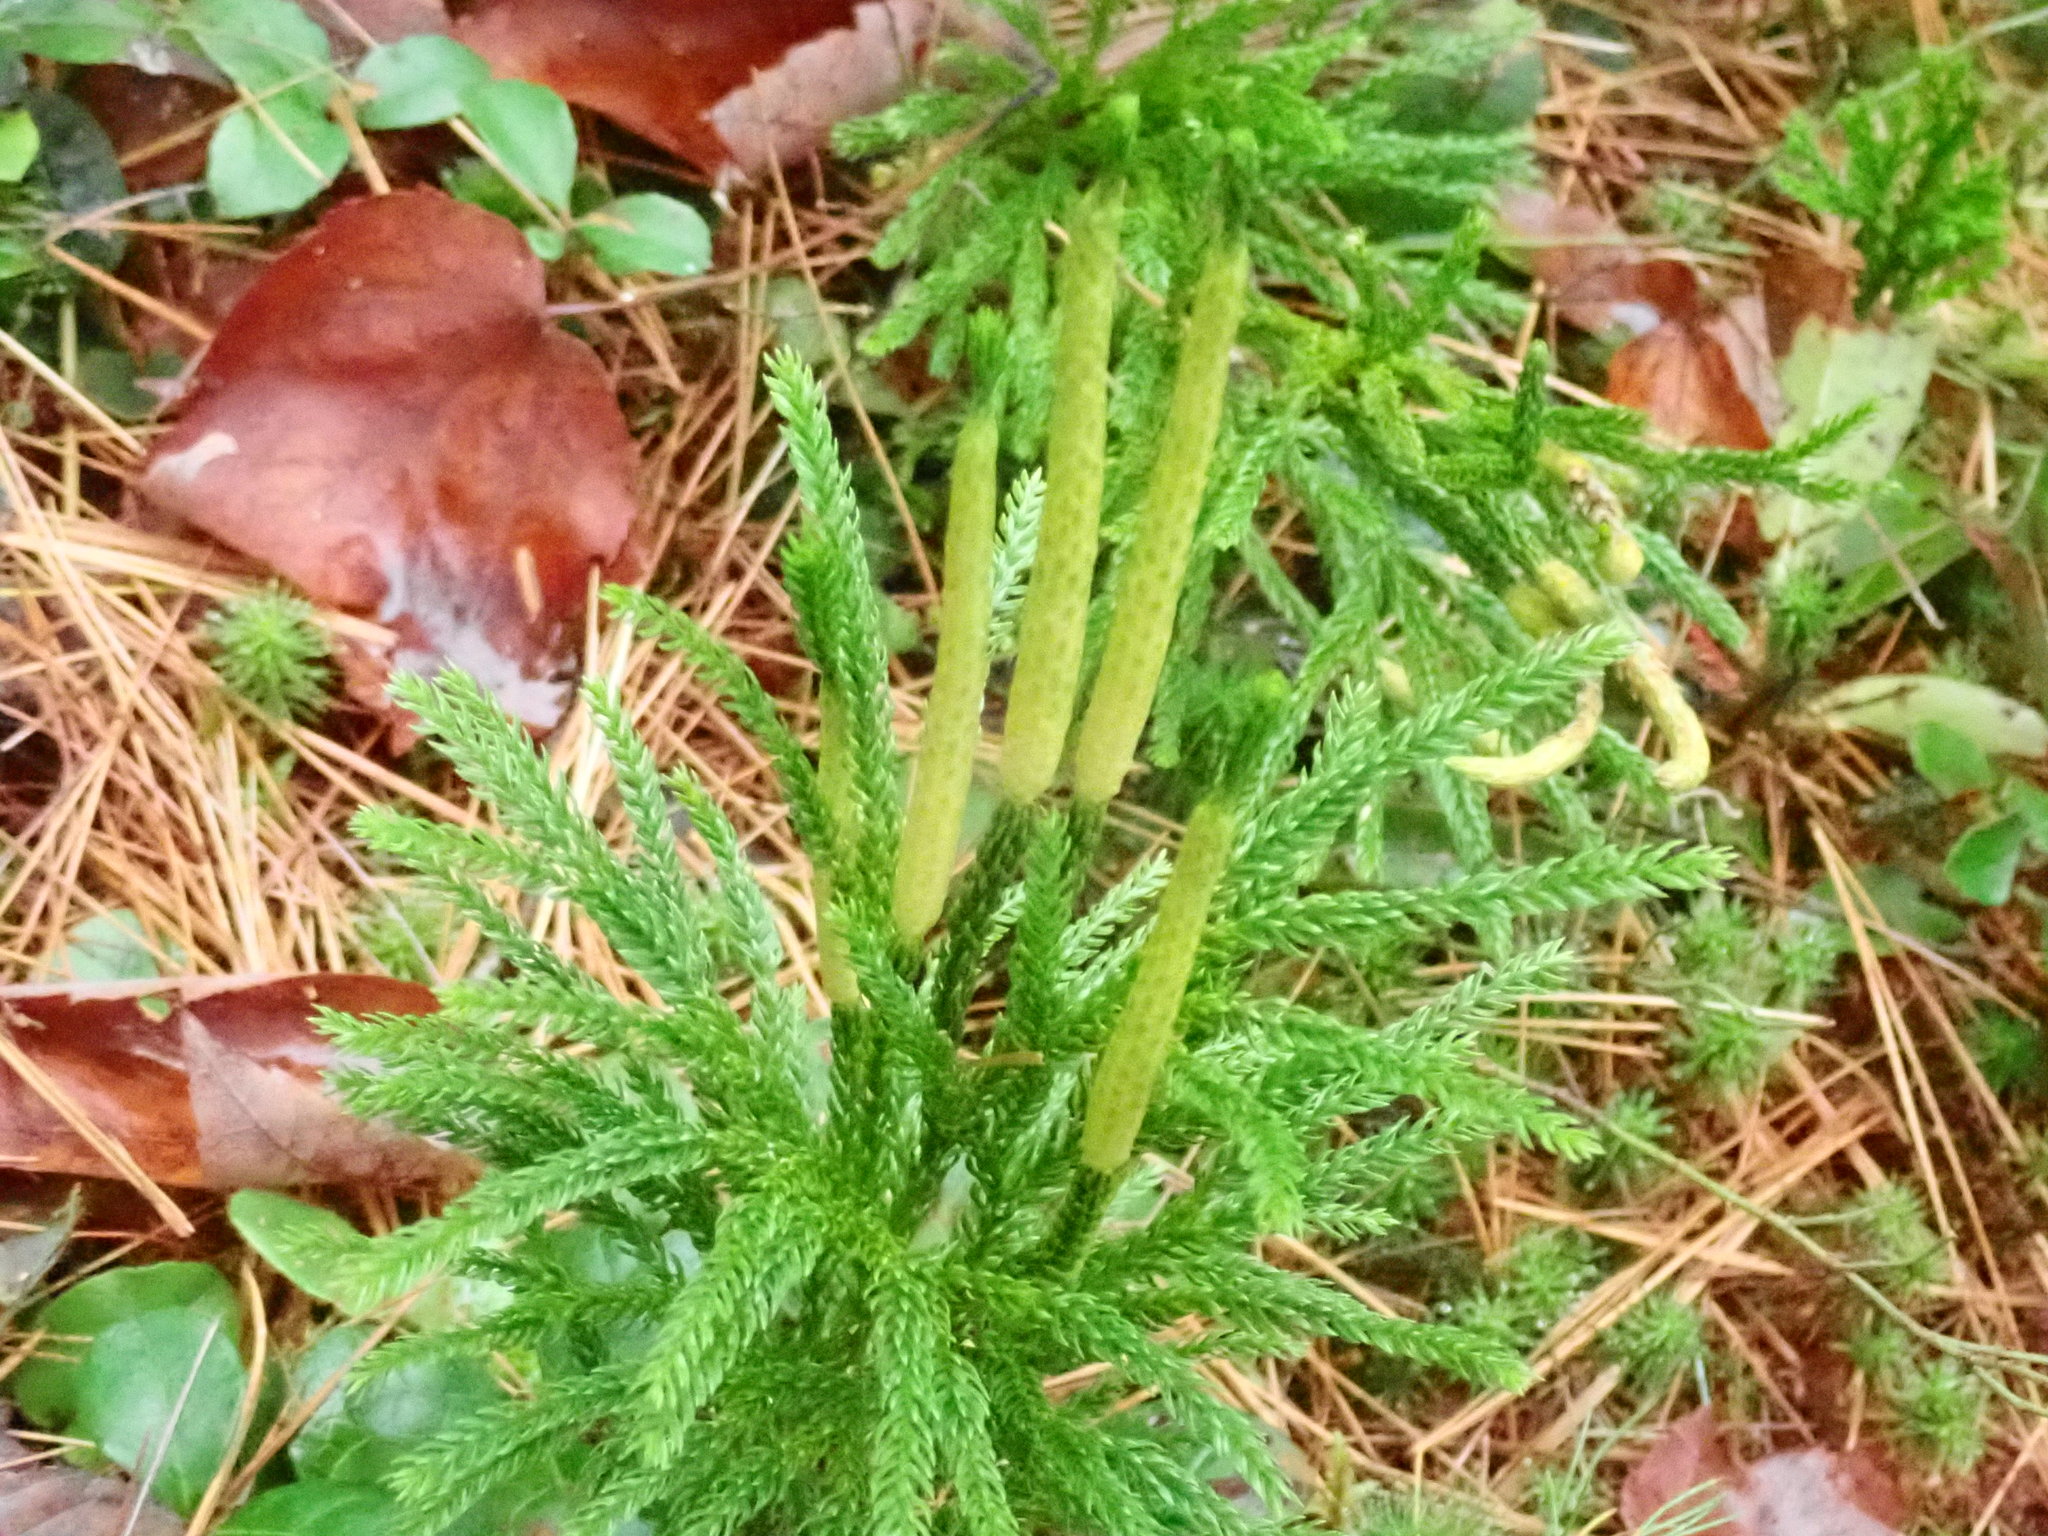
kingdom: Plantae
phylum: Tracheophyta
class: Lycopodiopsida
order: Lycopodiales
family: Lycopodiaceae
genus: Dendrolycopodium
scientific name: Dendrolycopodium hickeyi
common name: Hickey's clubmoss
